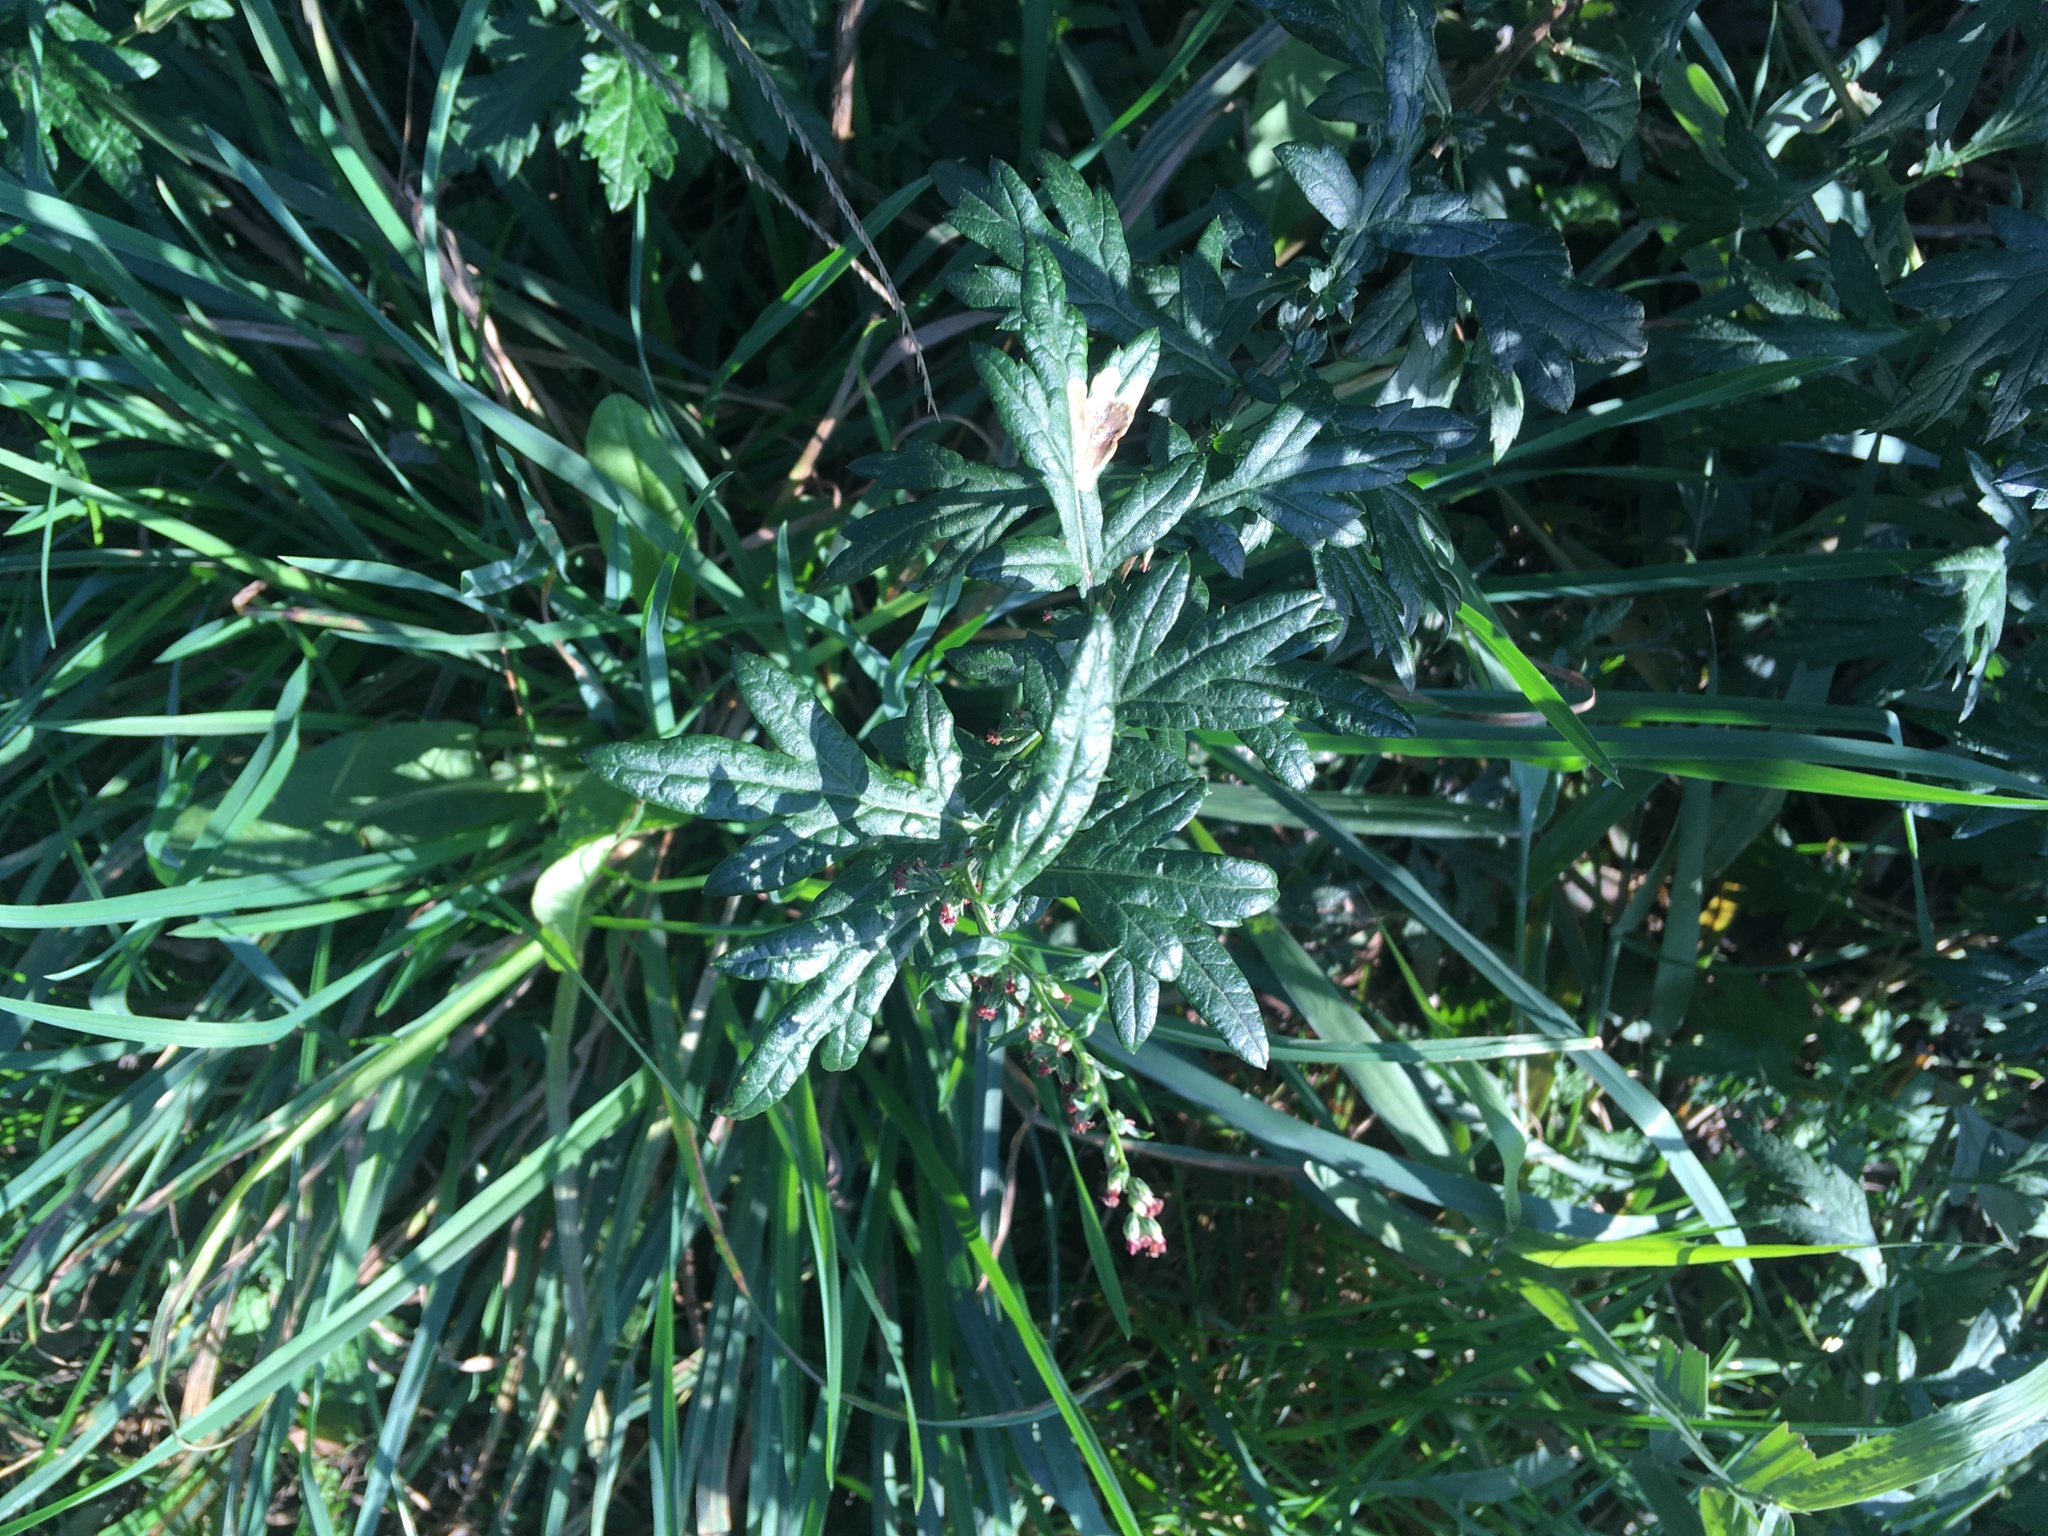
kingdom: Plantae
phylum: Tracheophyta
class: Magnoliopsida
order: Asterales
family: Asteraceae
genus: Artemisia
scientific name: Artemisia vulgaris
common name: Mugwort
